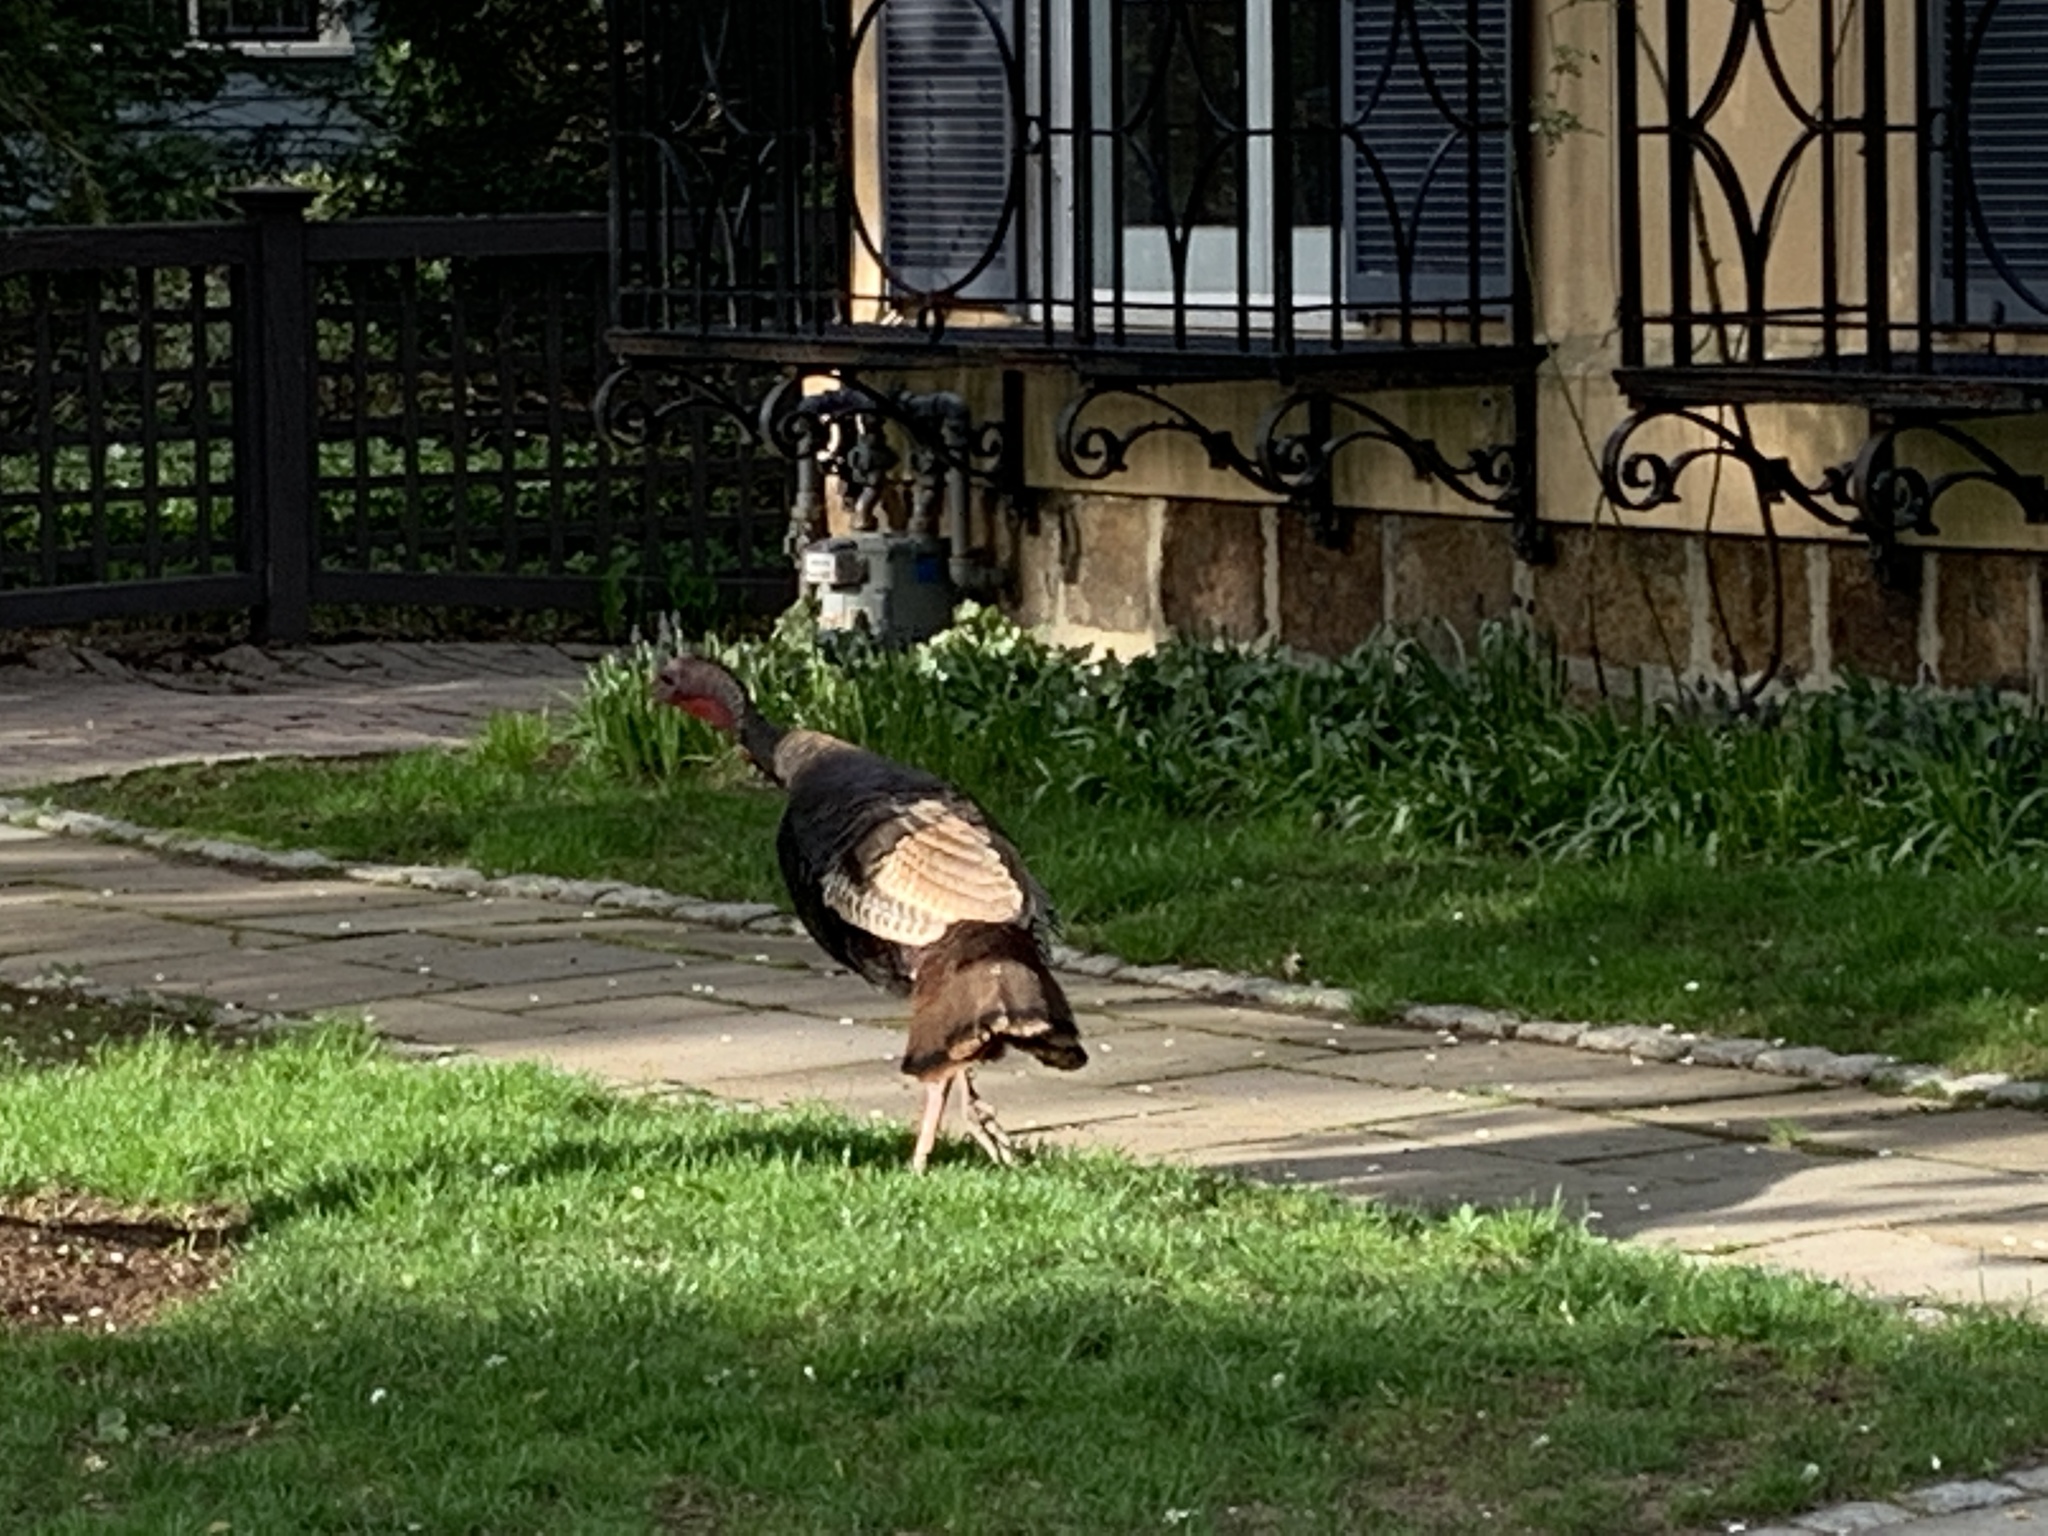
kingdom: Animalia
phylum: Chordata
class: Aves
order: Galliformes
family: Phasianidae
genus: Meleagris
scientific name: Meleagris gallopavo
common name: Wild turkey
